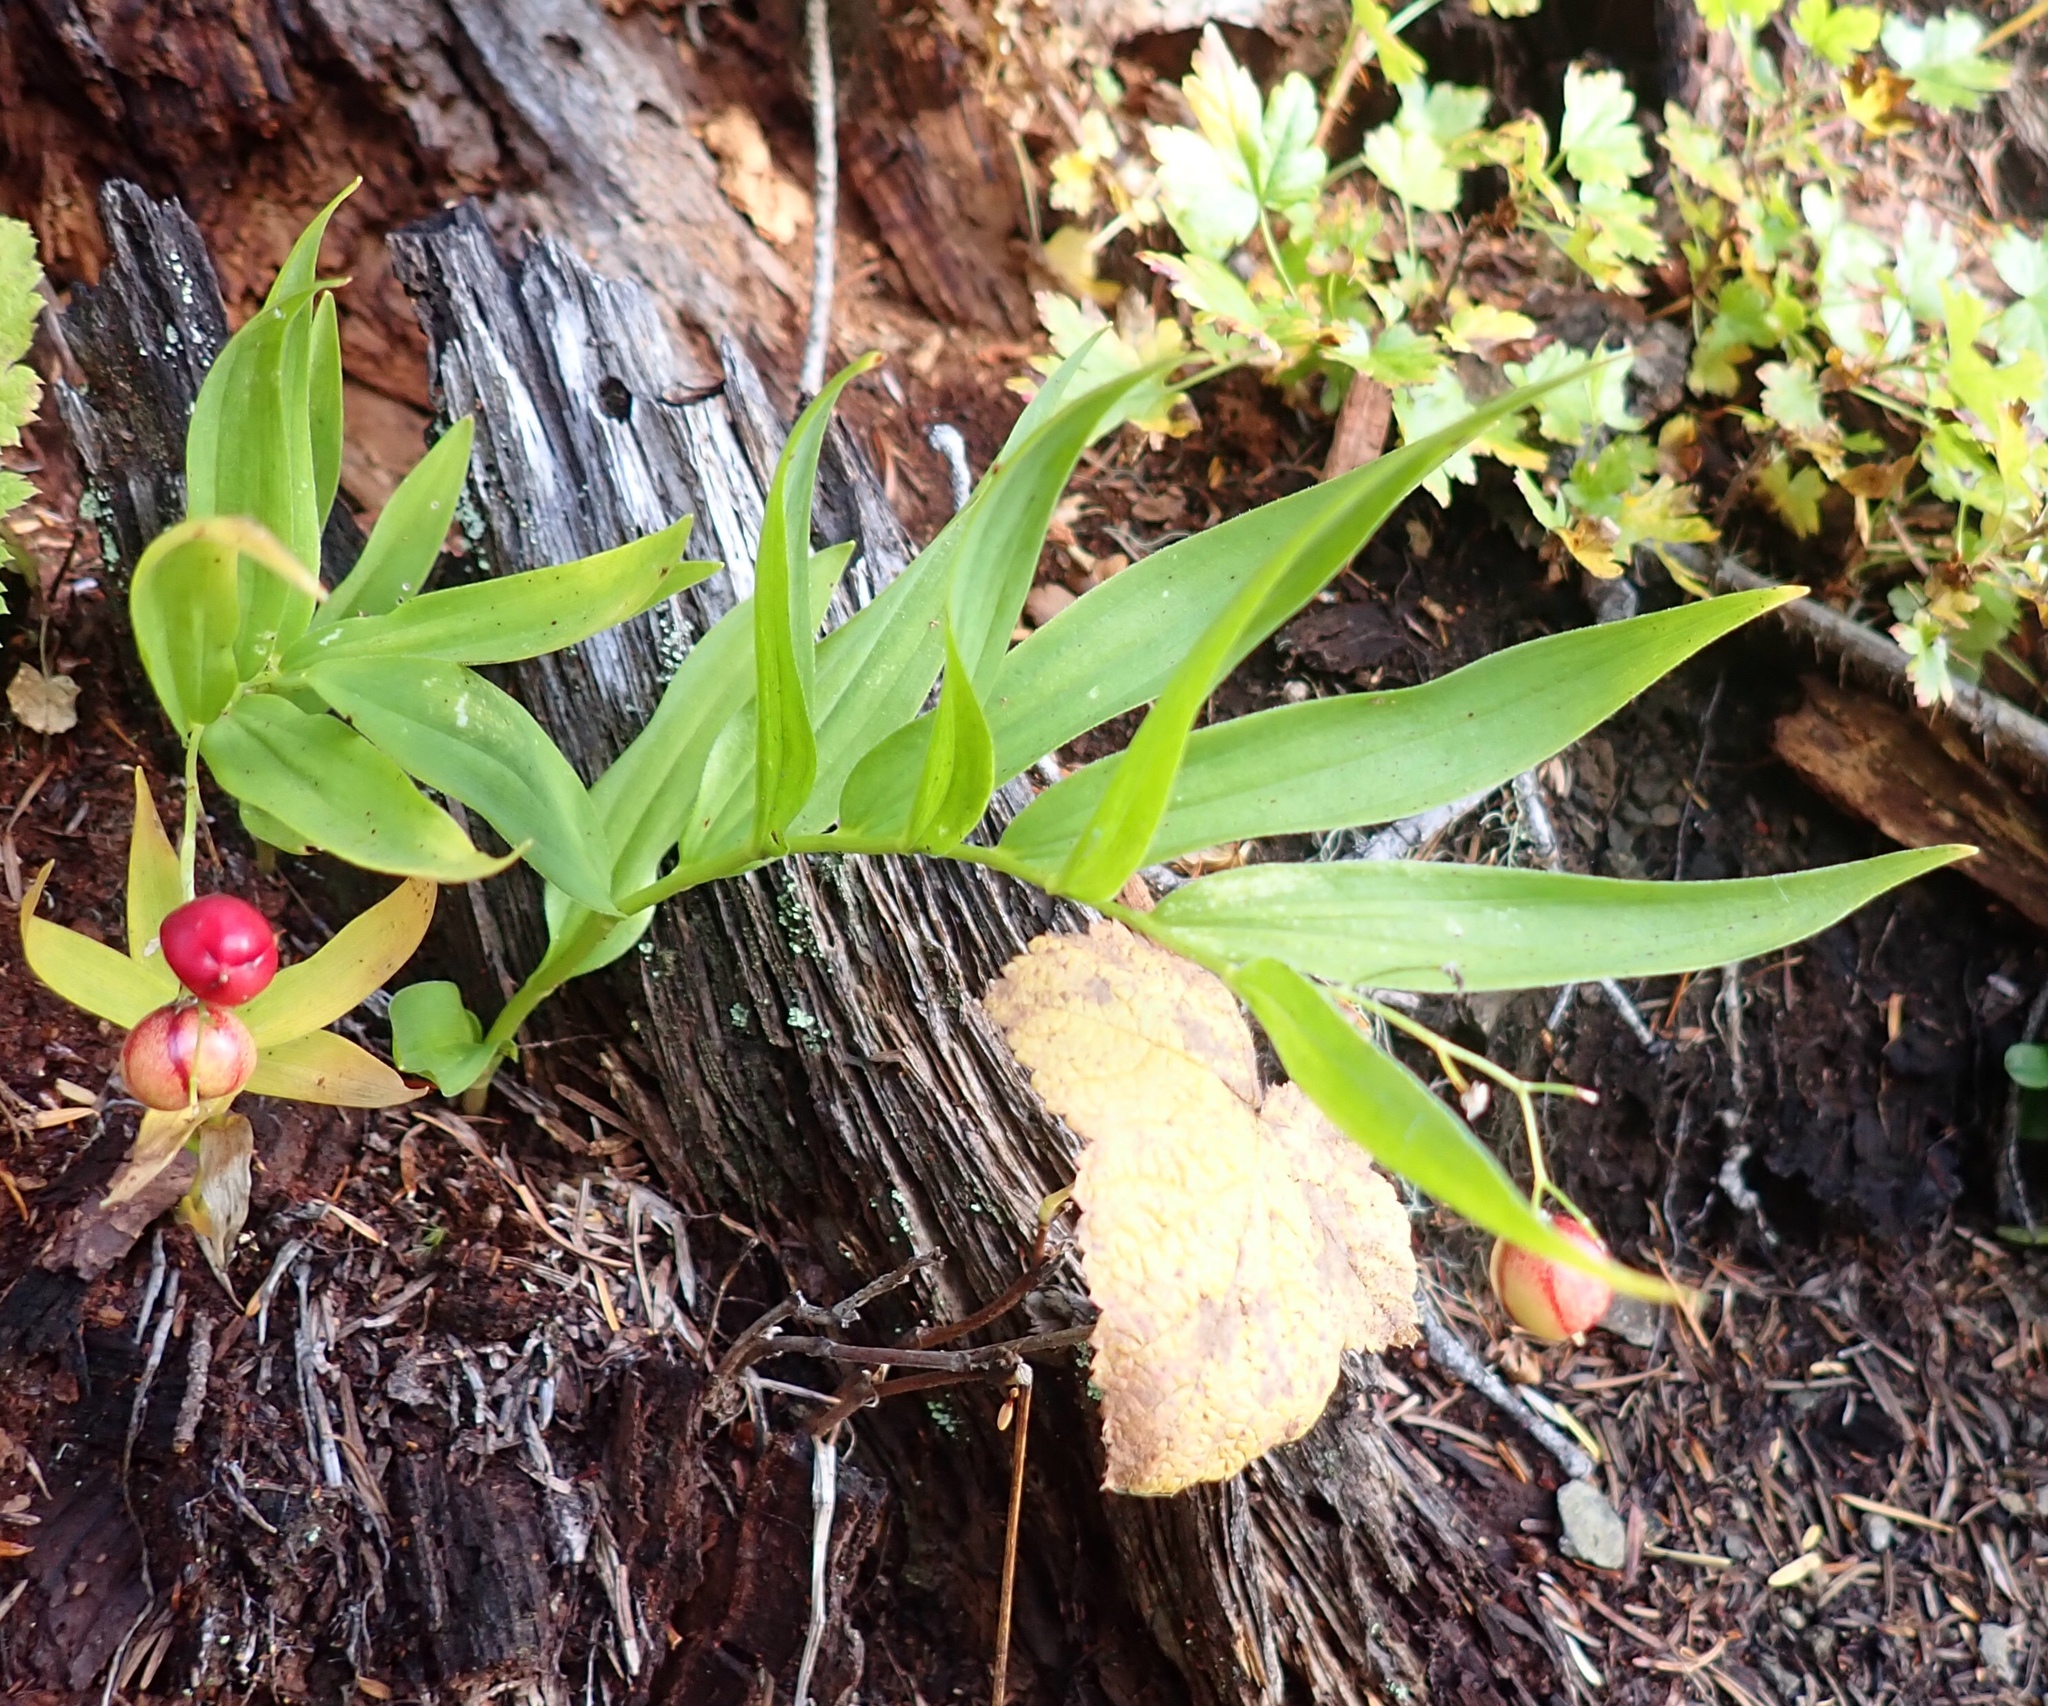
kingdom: Plantae
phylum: Tracheophyta
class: Liliopsida
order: Asparagales
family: Asparagaceae
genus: Maianthemum
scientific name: Maianthemum stellatum
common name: Little false solomon's seal
